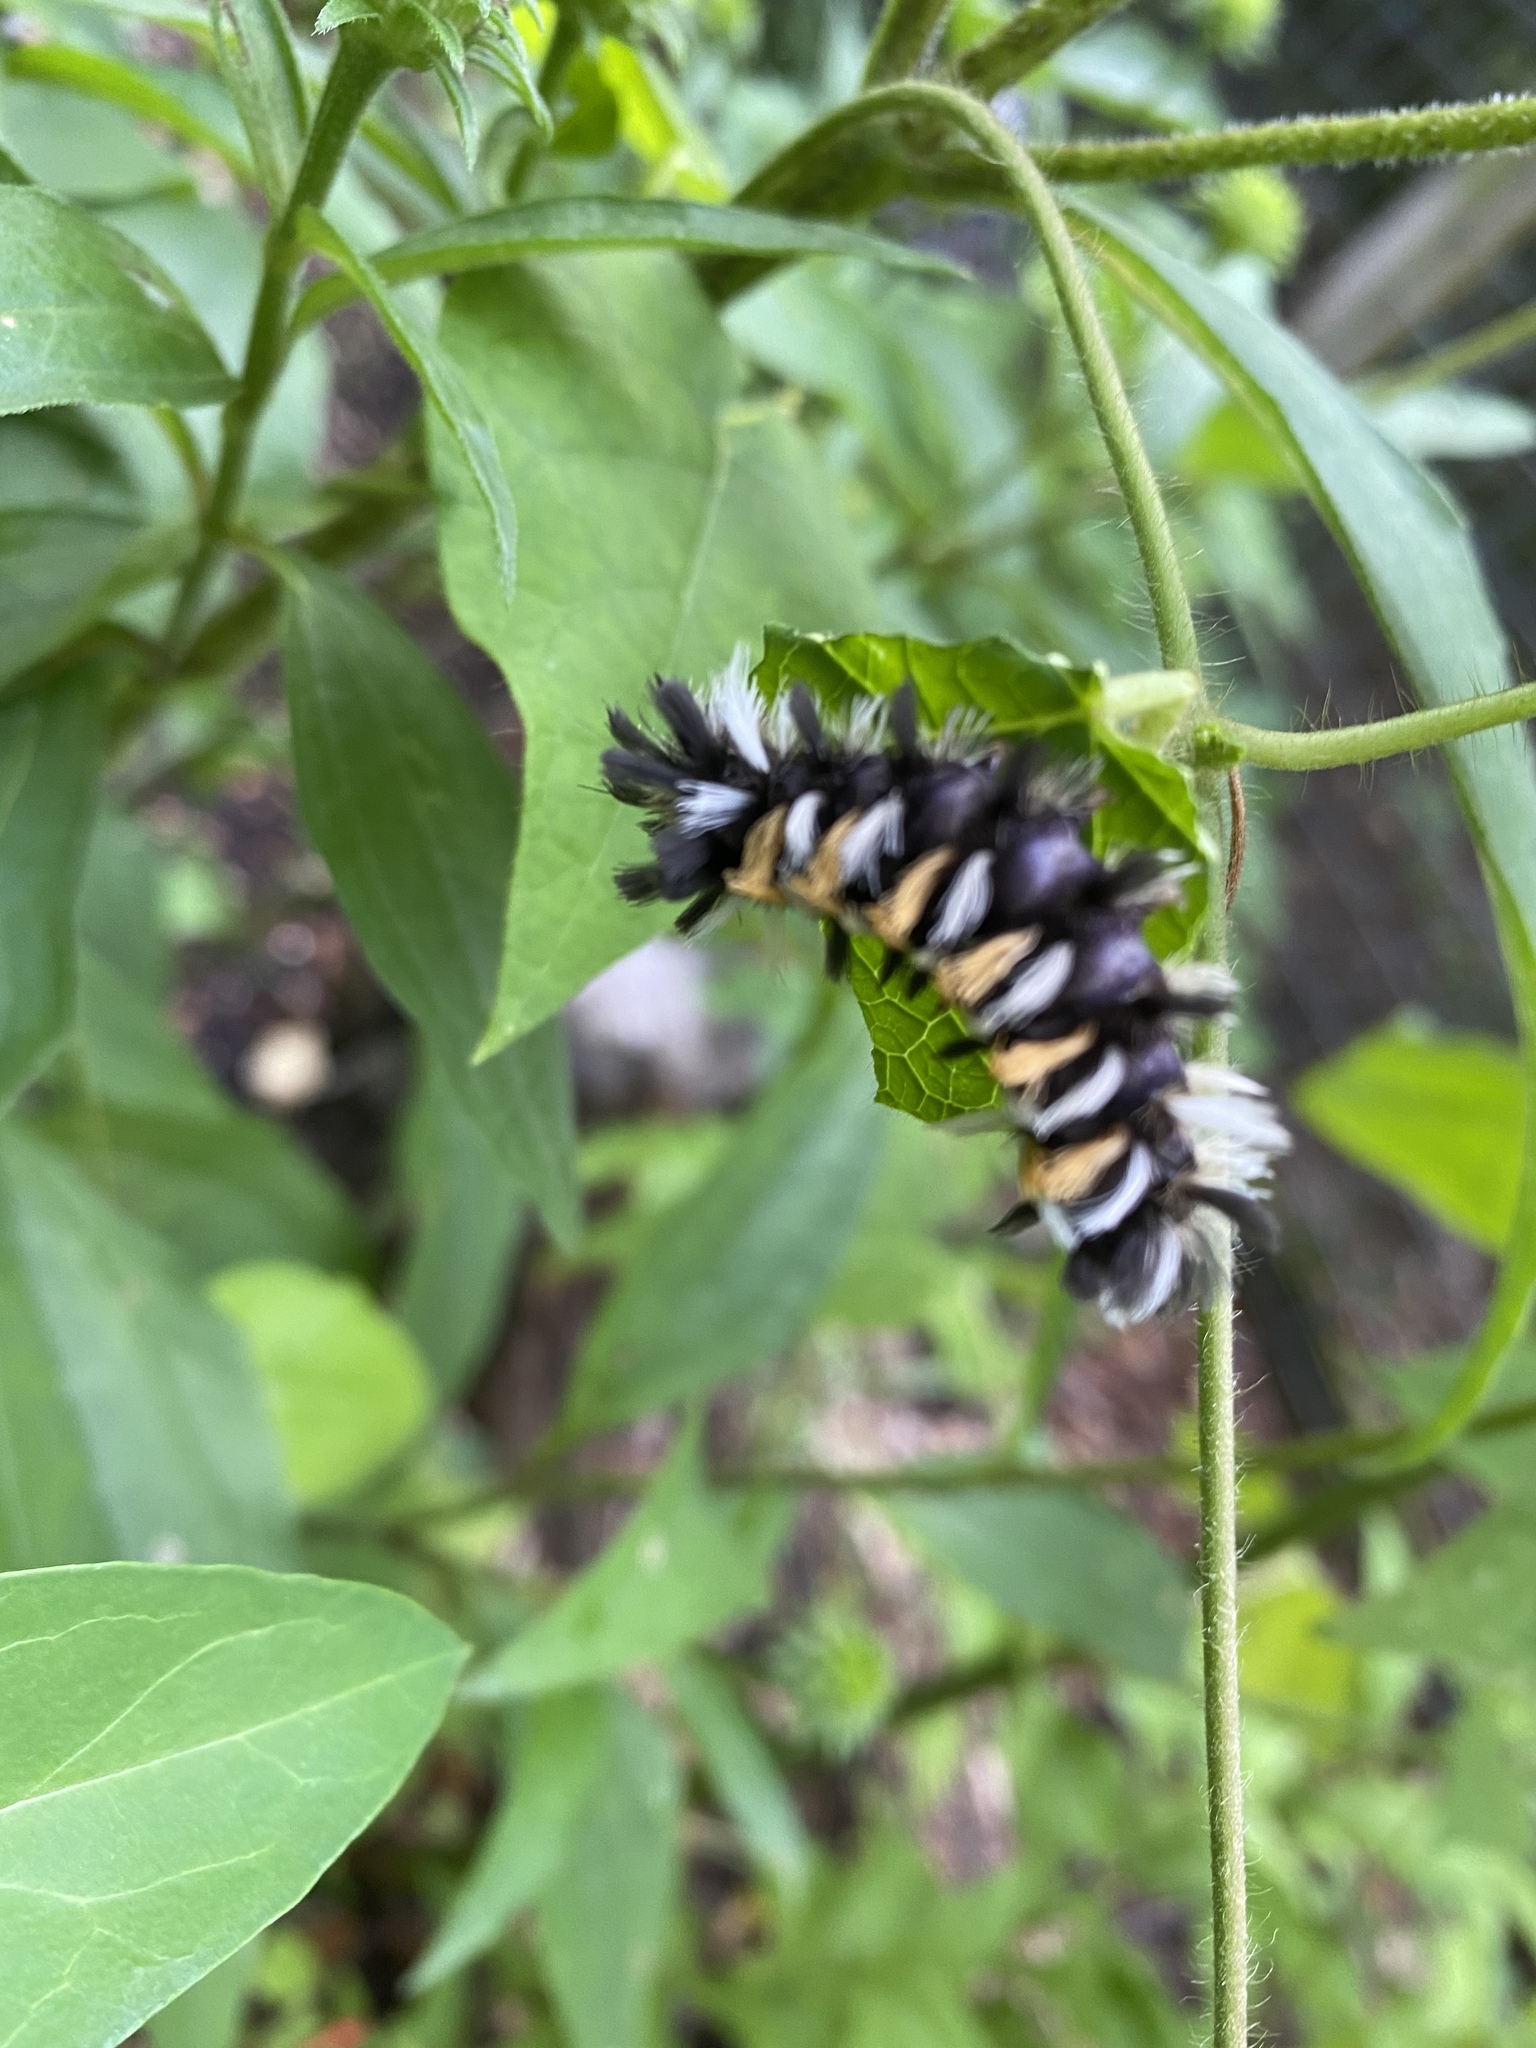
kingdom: Animalia
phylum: Arthropoda
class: Insecta
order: Lepidoptera
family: Erebidae
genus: Euchaetes
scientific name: Euchaetes egle
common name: Milkweed tussock moth
